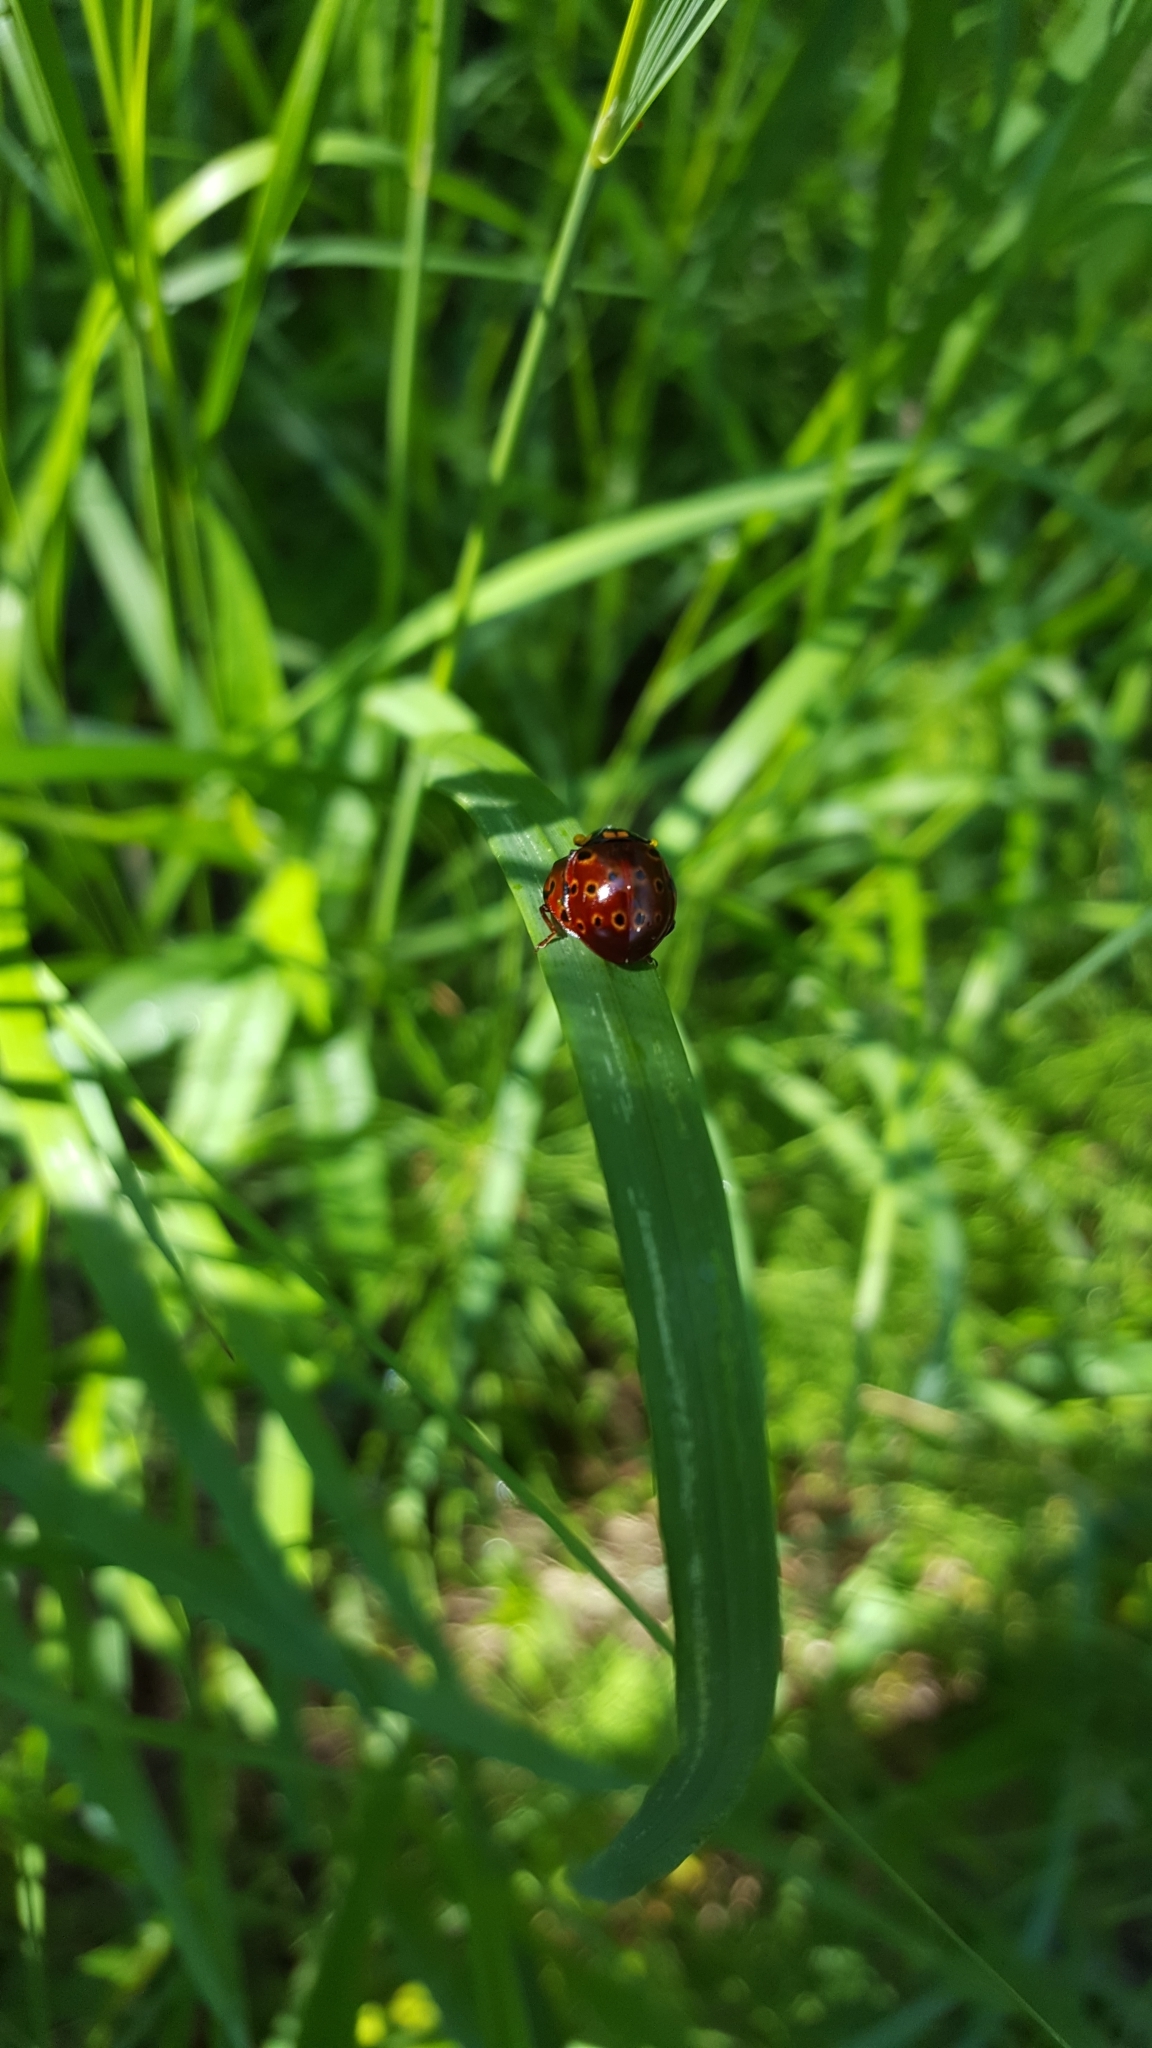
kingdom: Animalia
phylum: Arthropoda
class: Insecta
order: Coleoptera
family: Coccinellidae
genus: Anatis
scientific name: Anatis mali
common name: Eye-spotted lady beetle
